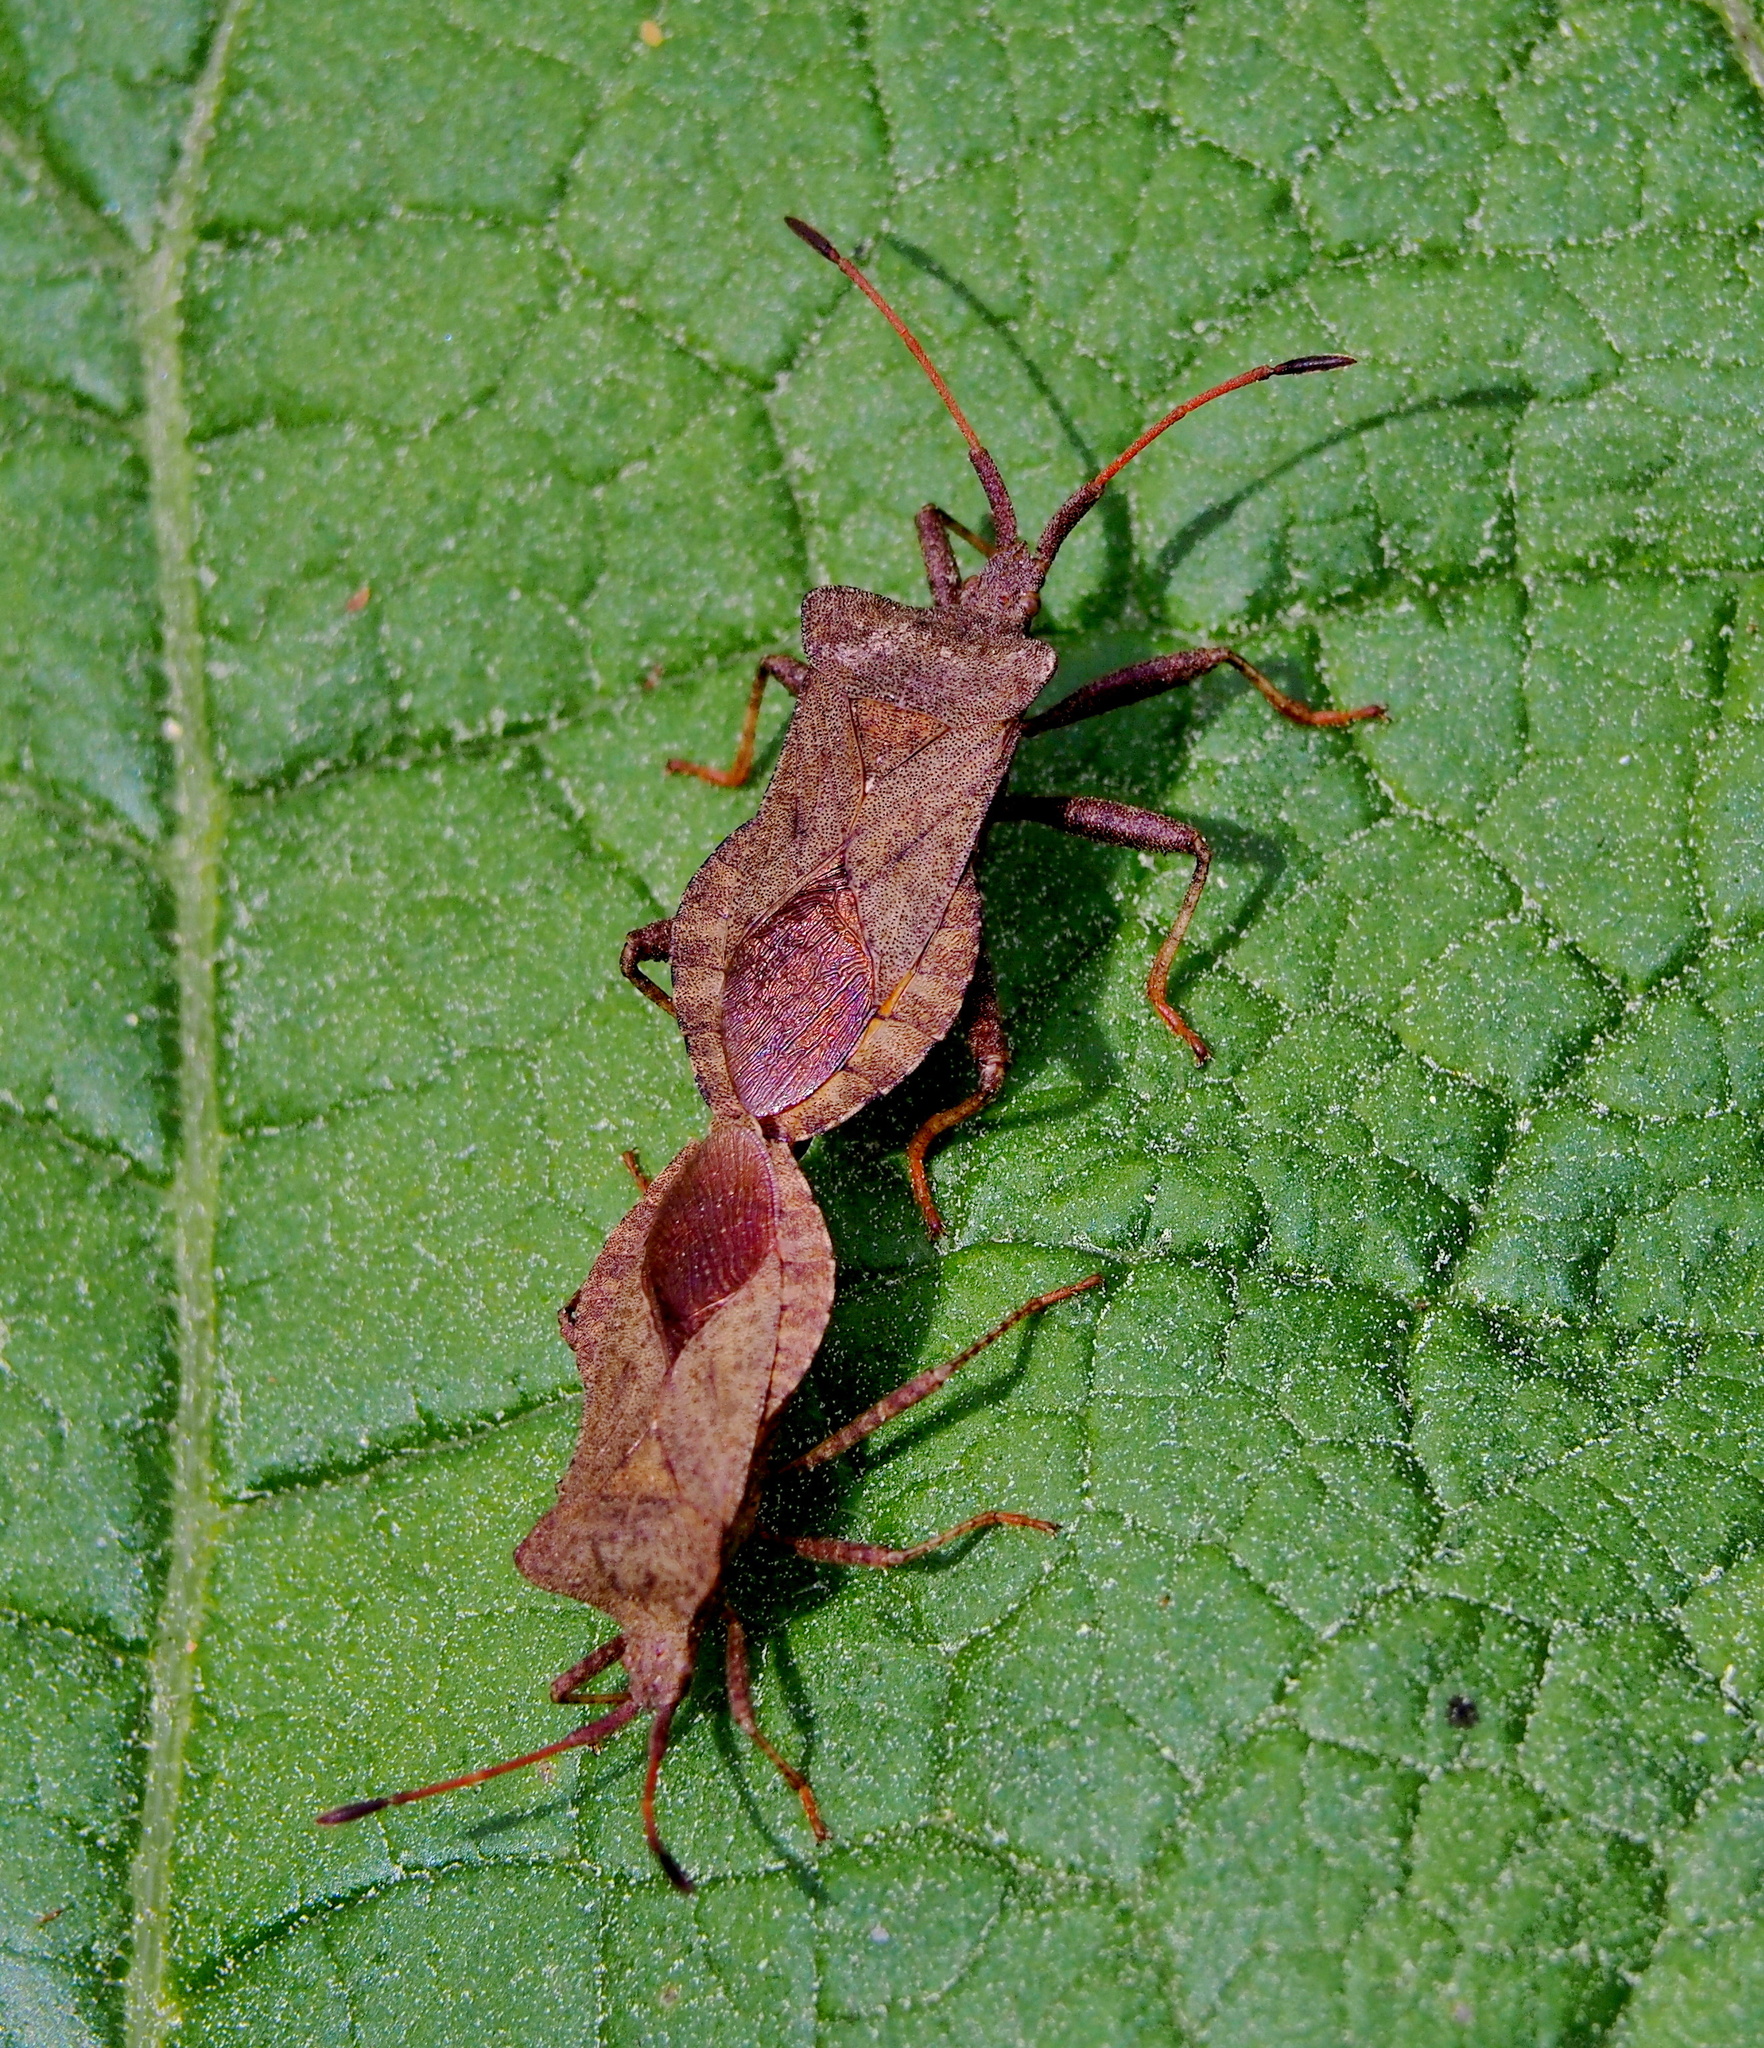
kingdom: Animalia
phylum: Arthropoda
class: Insecta
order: Hemiptera
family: Coreidae
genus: Coreus
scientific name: Coreus marginatus
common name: Dock bug
